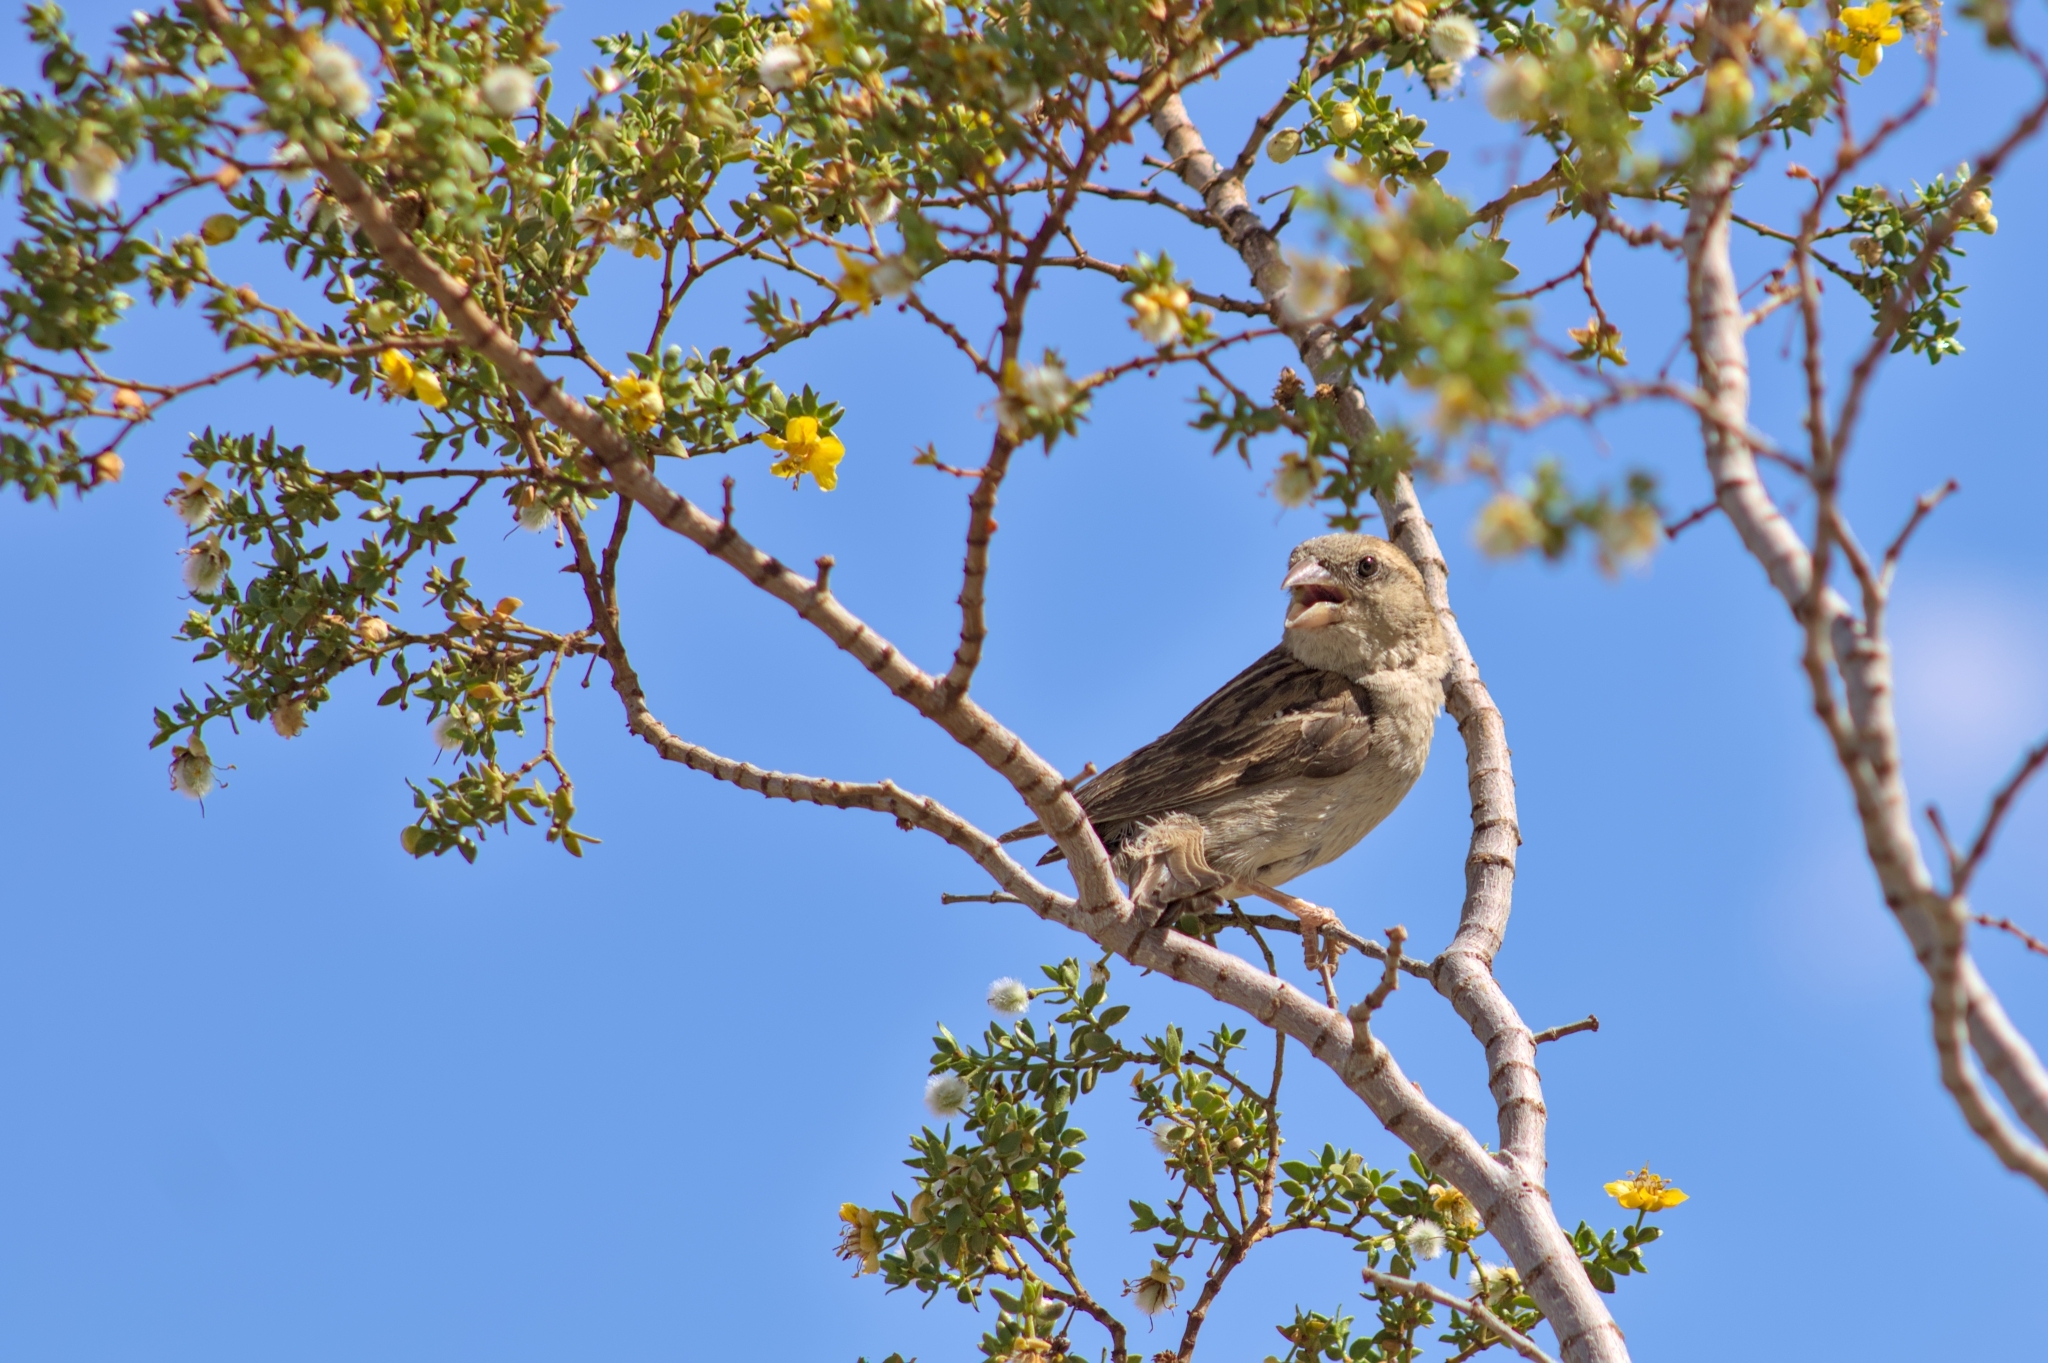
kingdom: Animalia
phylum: Chordata
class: Aves
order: Passeriformes
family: Passeridae
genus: Passer
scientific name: Passer domesticus
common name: House sparrow
